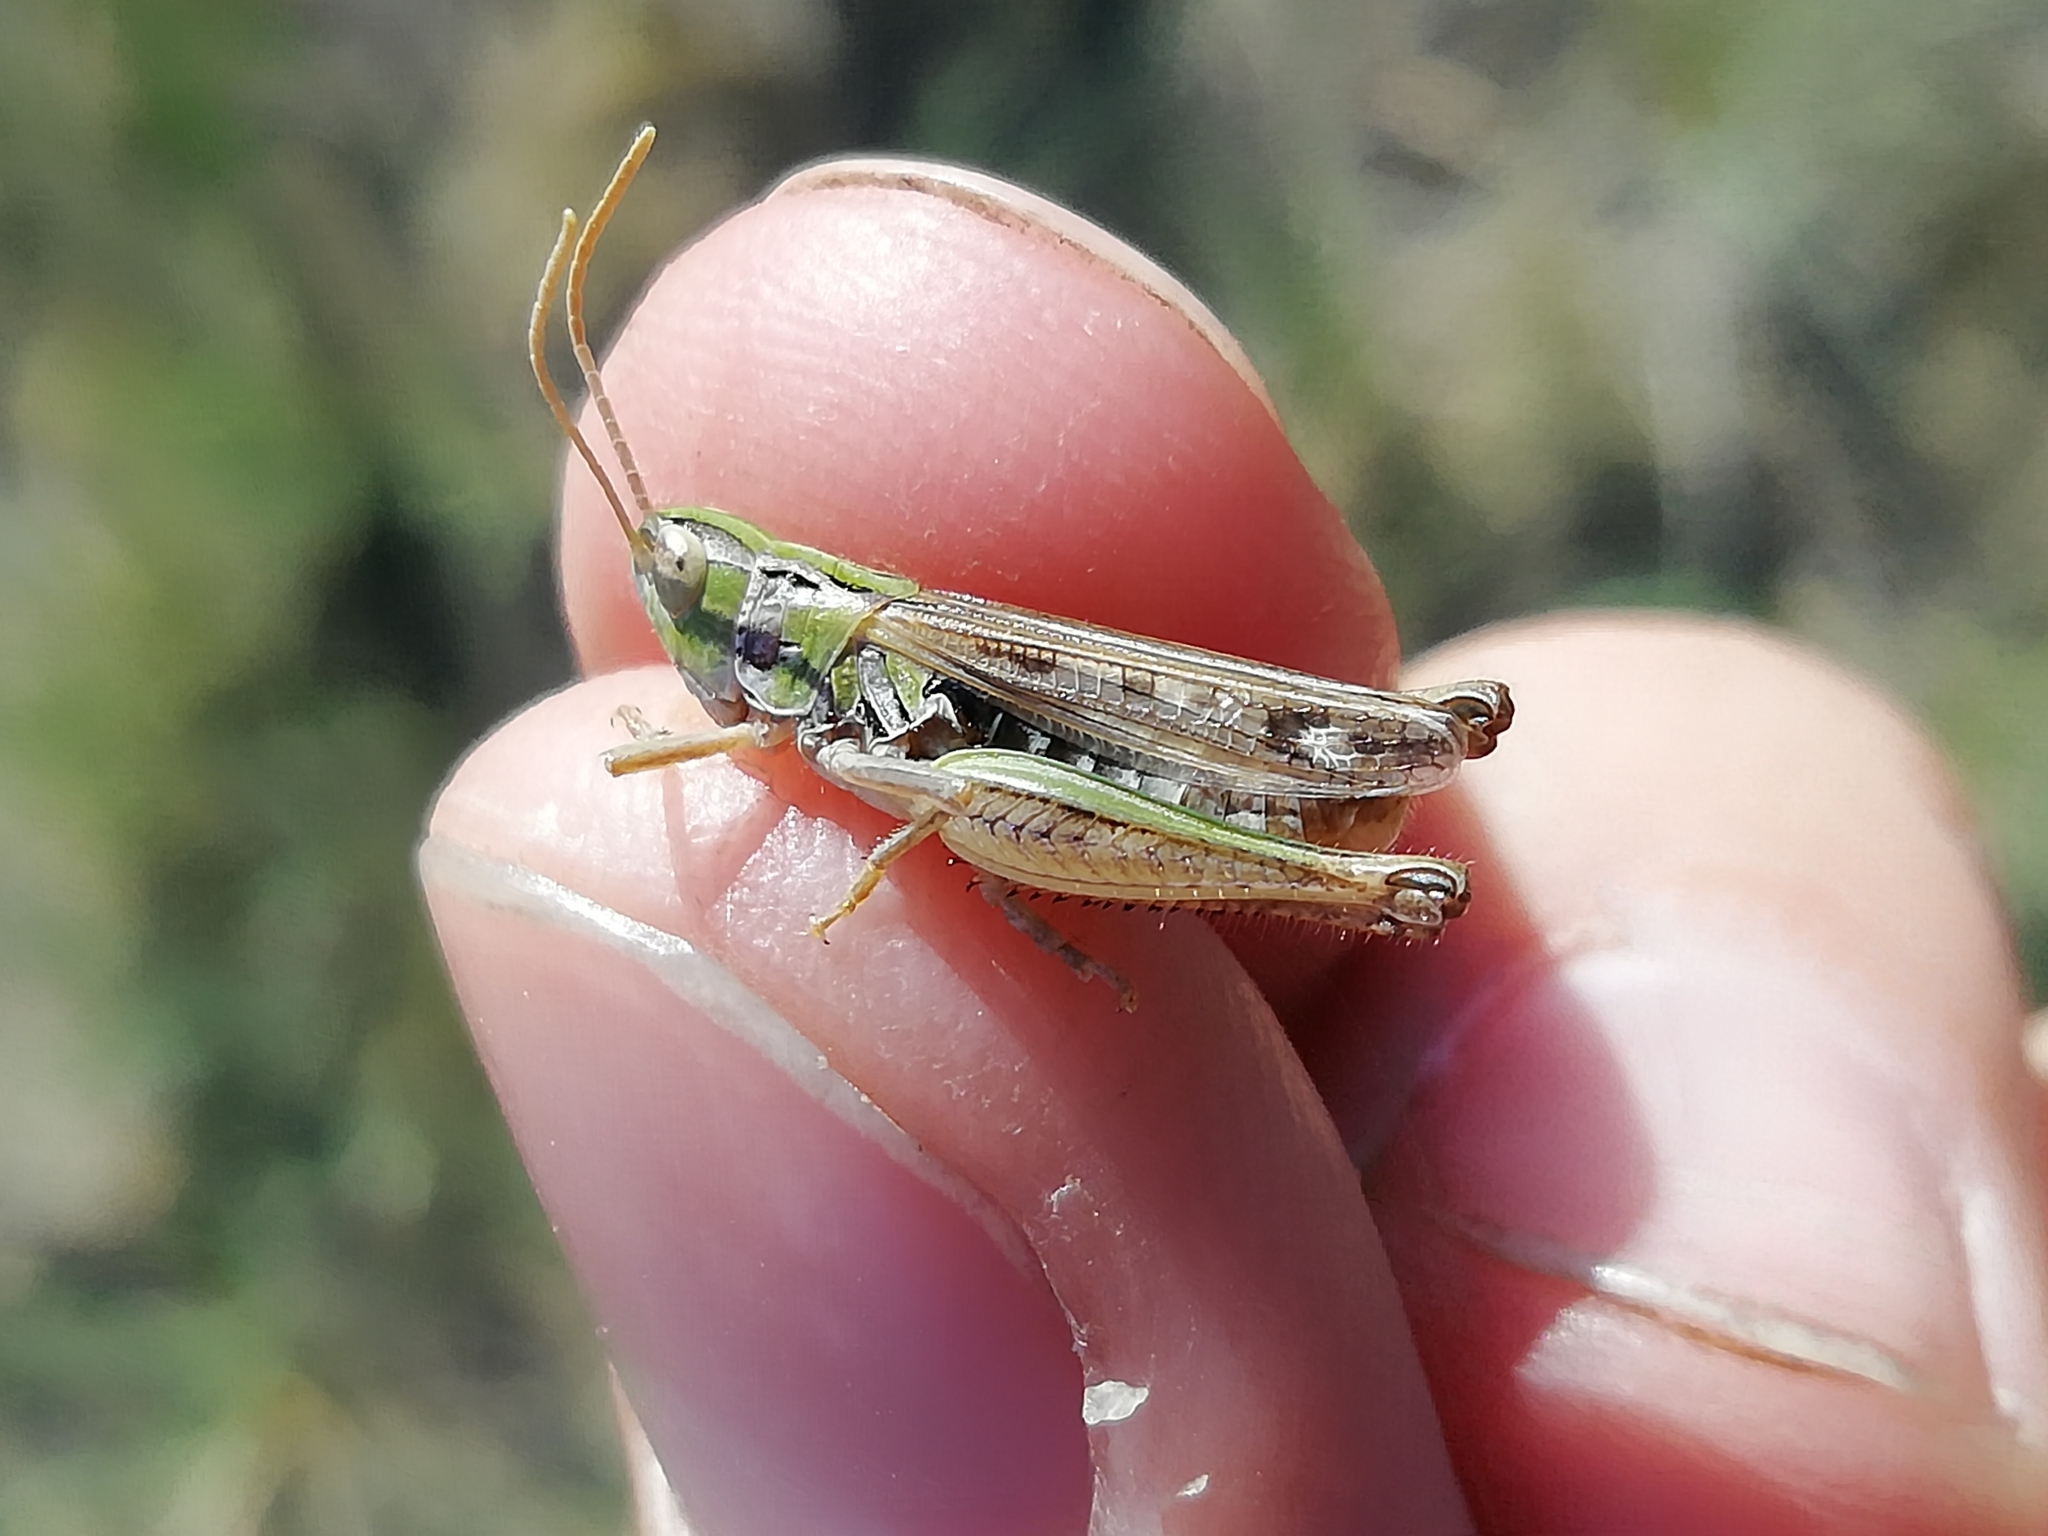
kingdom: Animalia
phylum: Arthropoda
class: Insecta
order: Orthoptera
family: Acrididae
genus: Stenobothrus
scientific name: Stenobothrus nigromaculatus
